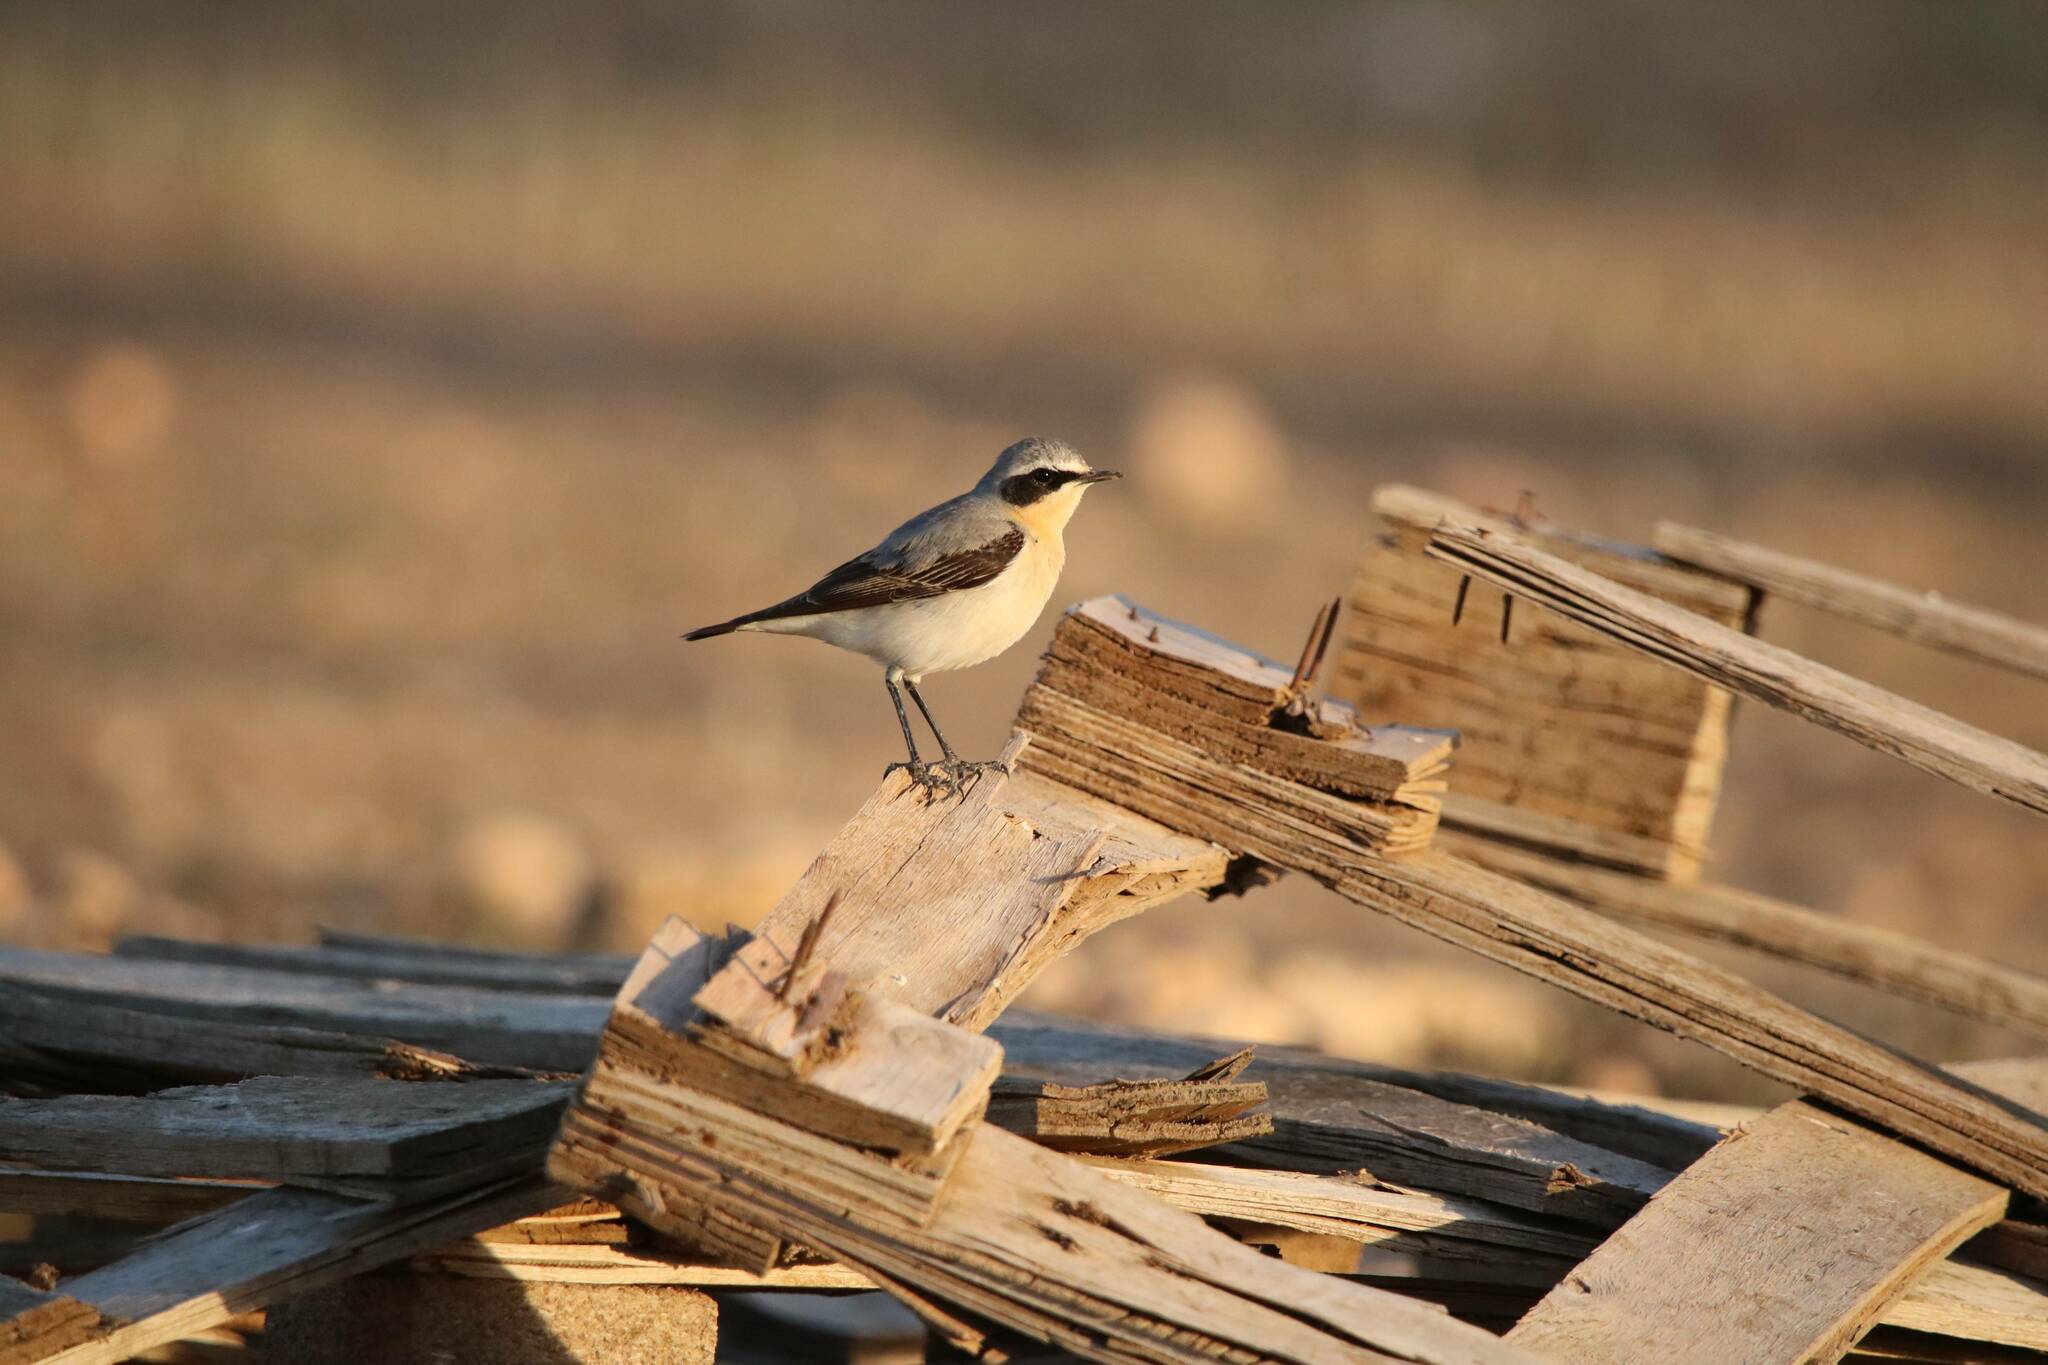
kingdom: Animalia
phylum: Chordata
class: Aves
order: Passeriformes
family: Muscicapidae
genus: Oenanthe
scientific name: Oenanthe oenanthe
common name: Northern wheatear
